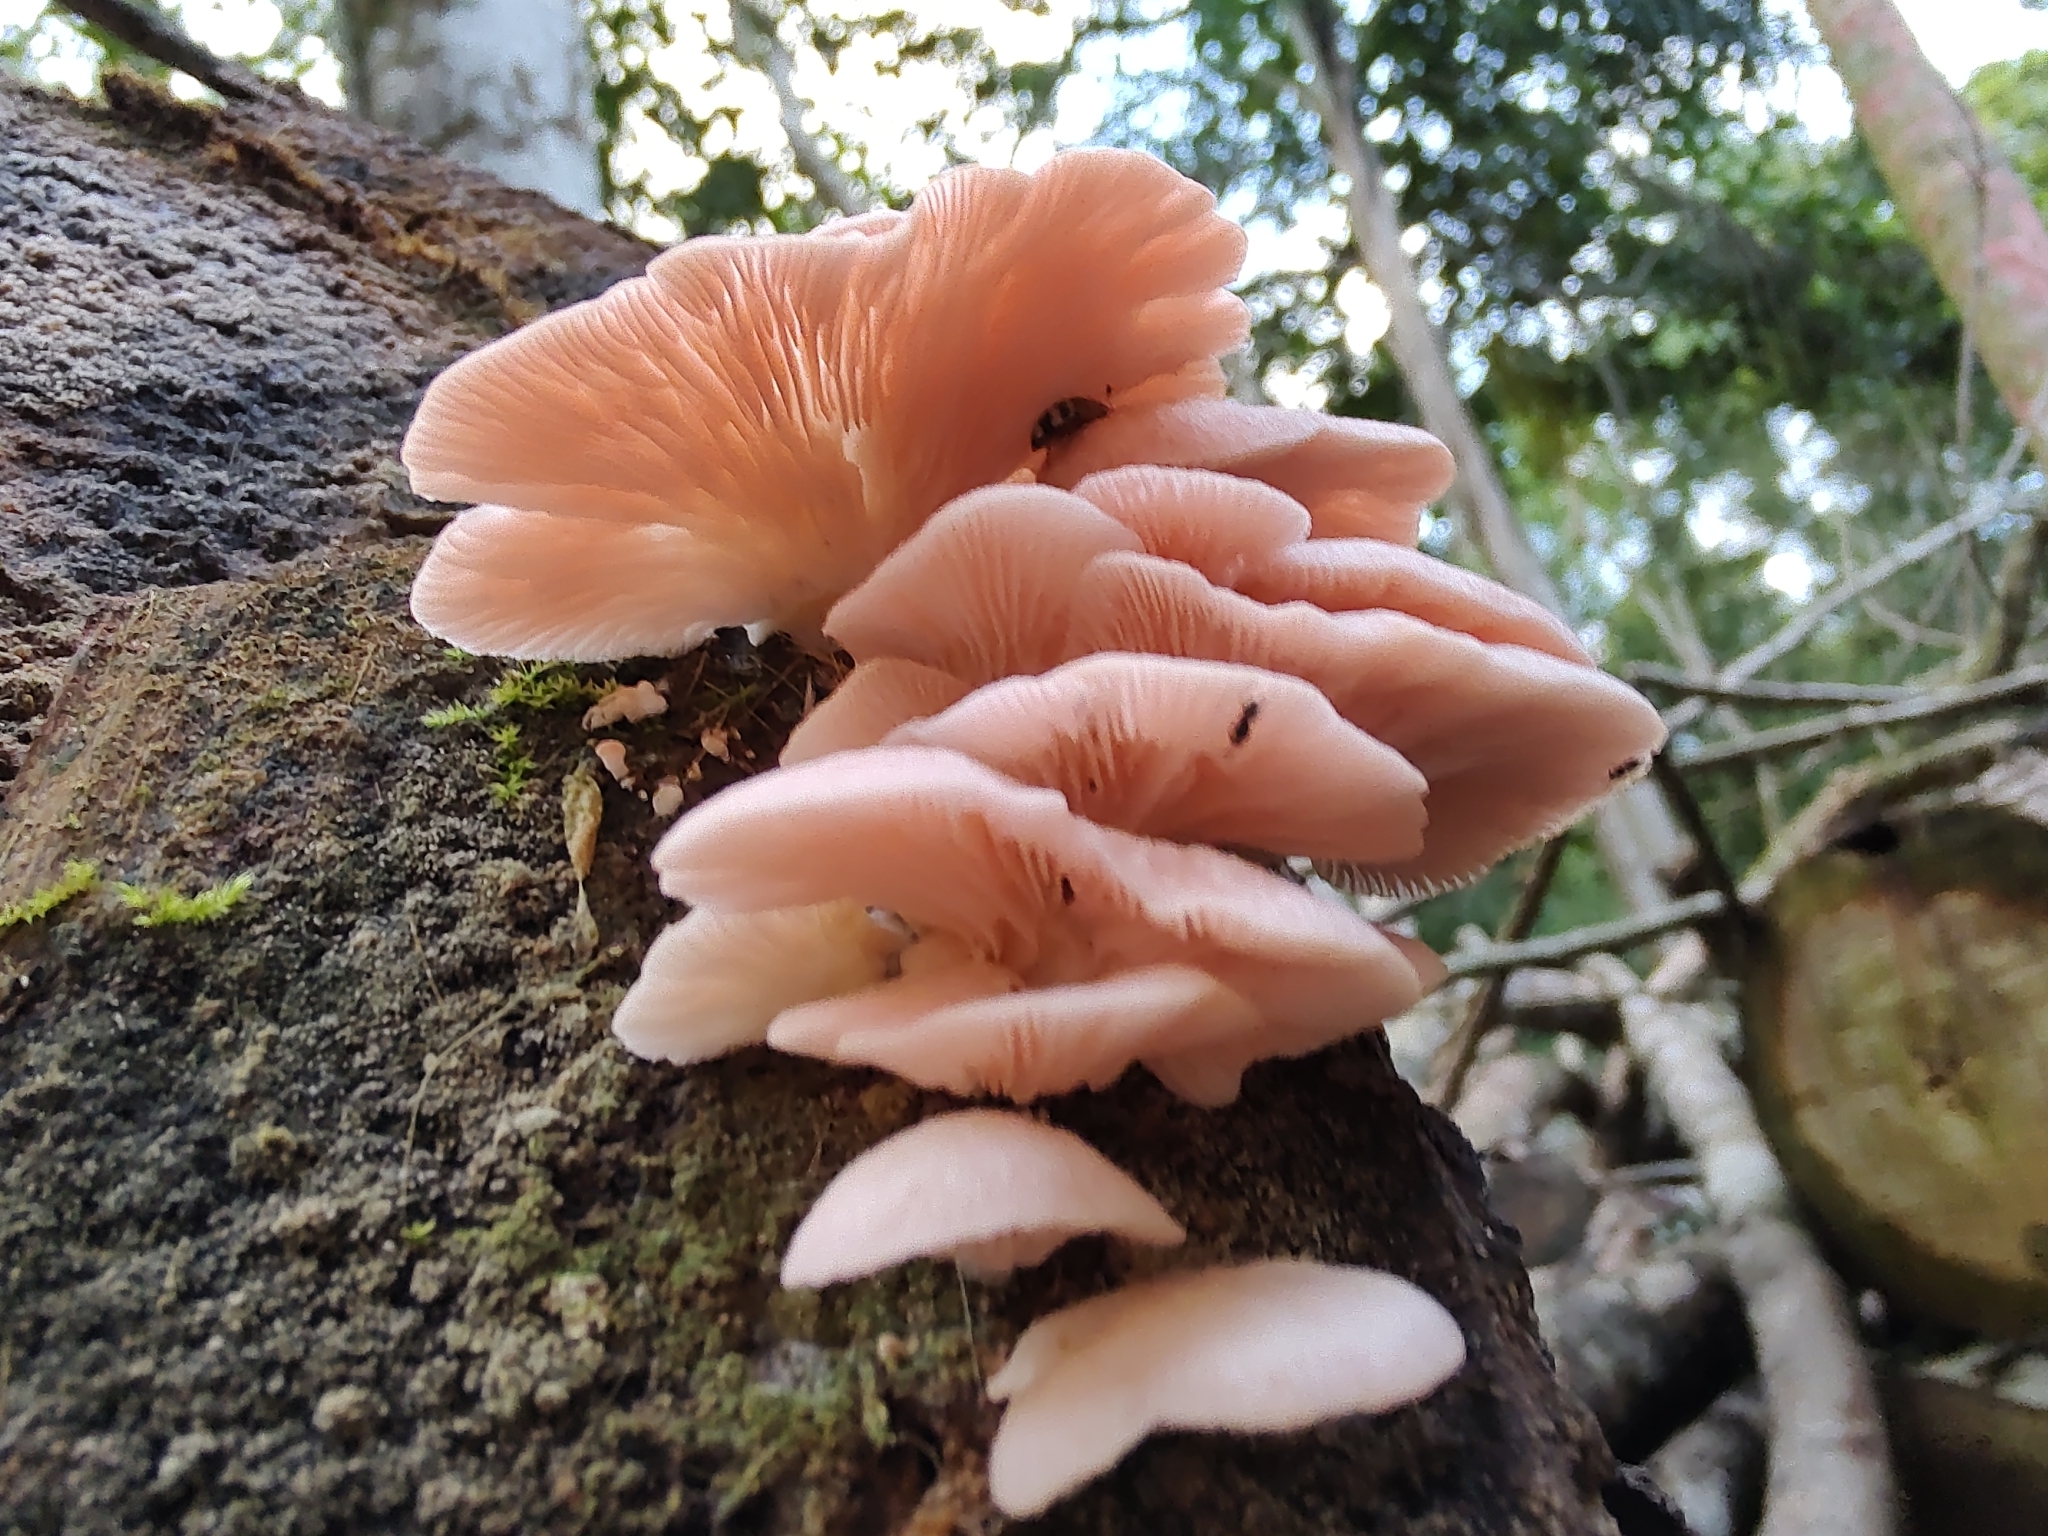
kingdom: Fungi
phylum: Basidiomycota
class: Agaricomycetes
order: Agaricales
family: Pleurotaceae
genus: Pleurotus
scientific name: Pleurotus djamor
